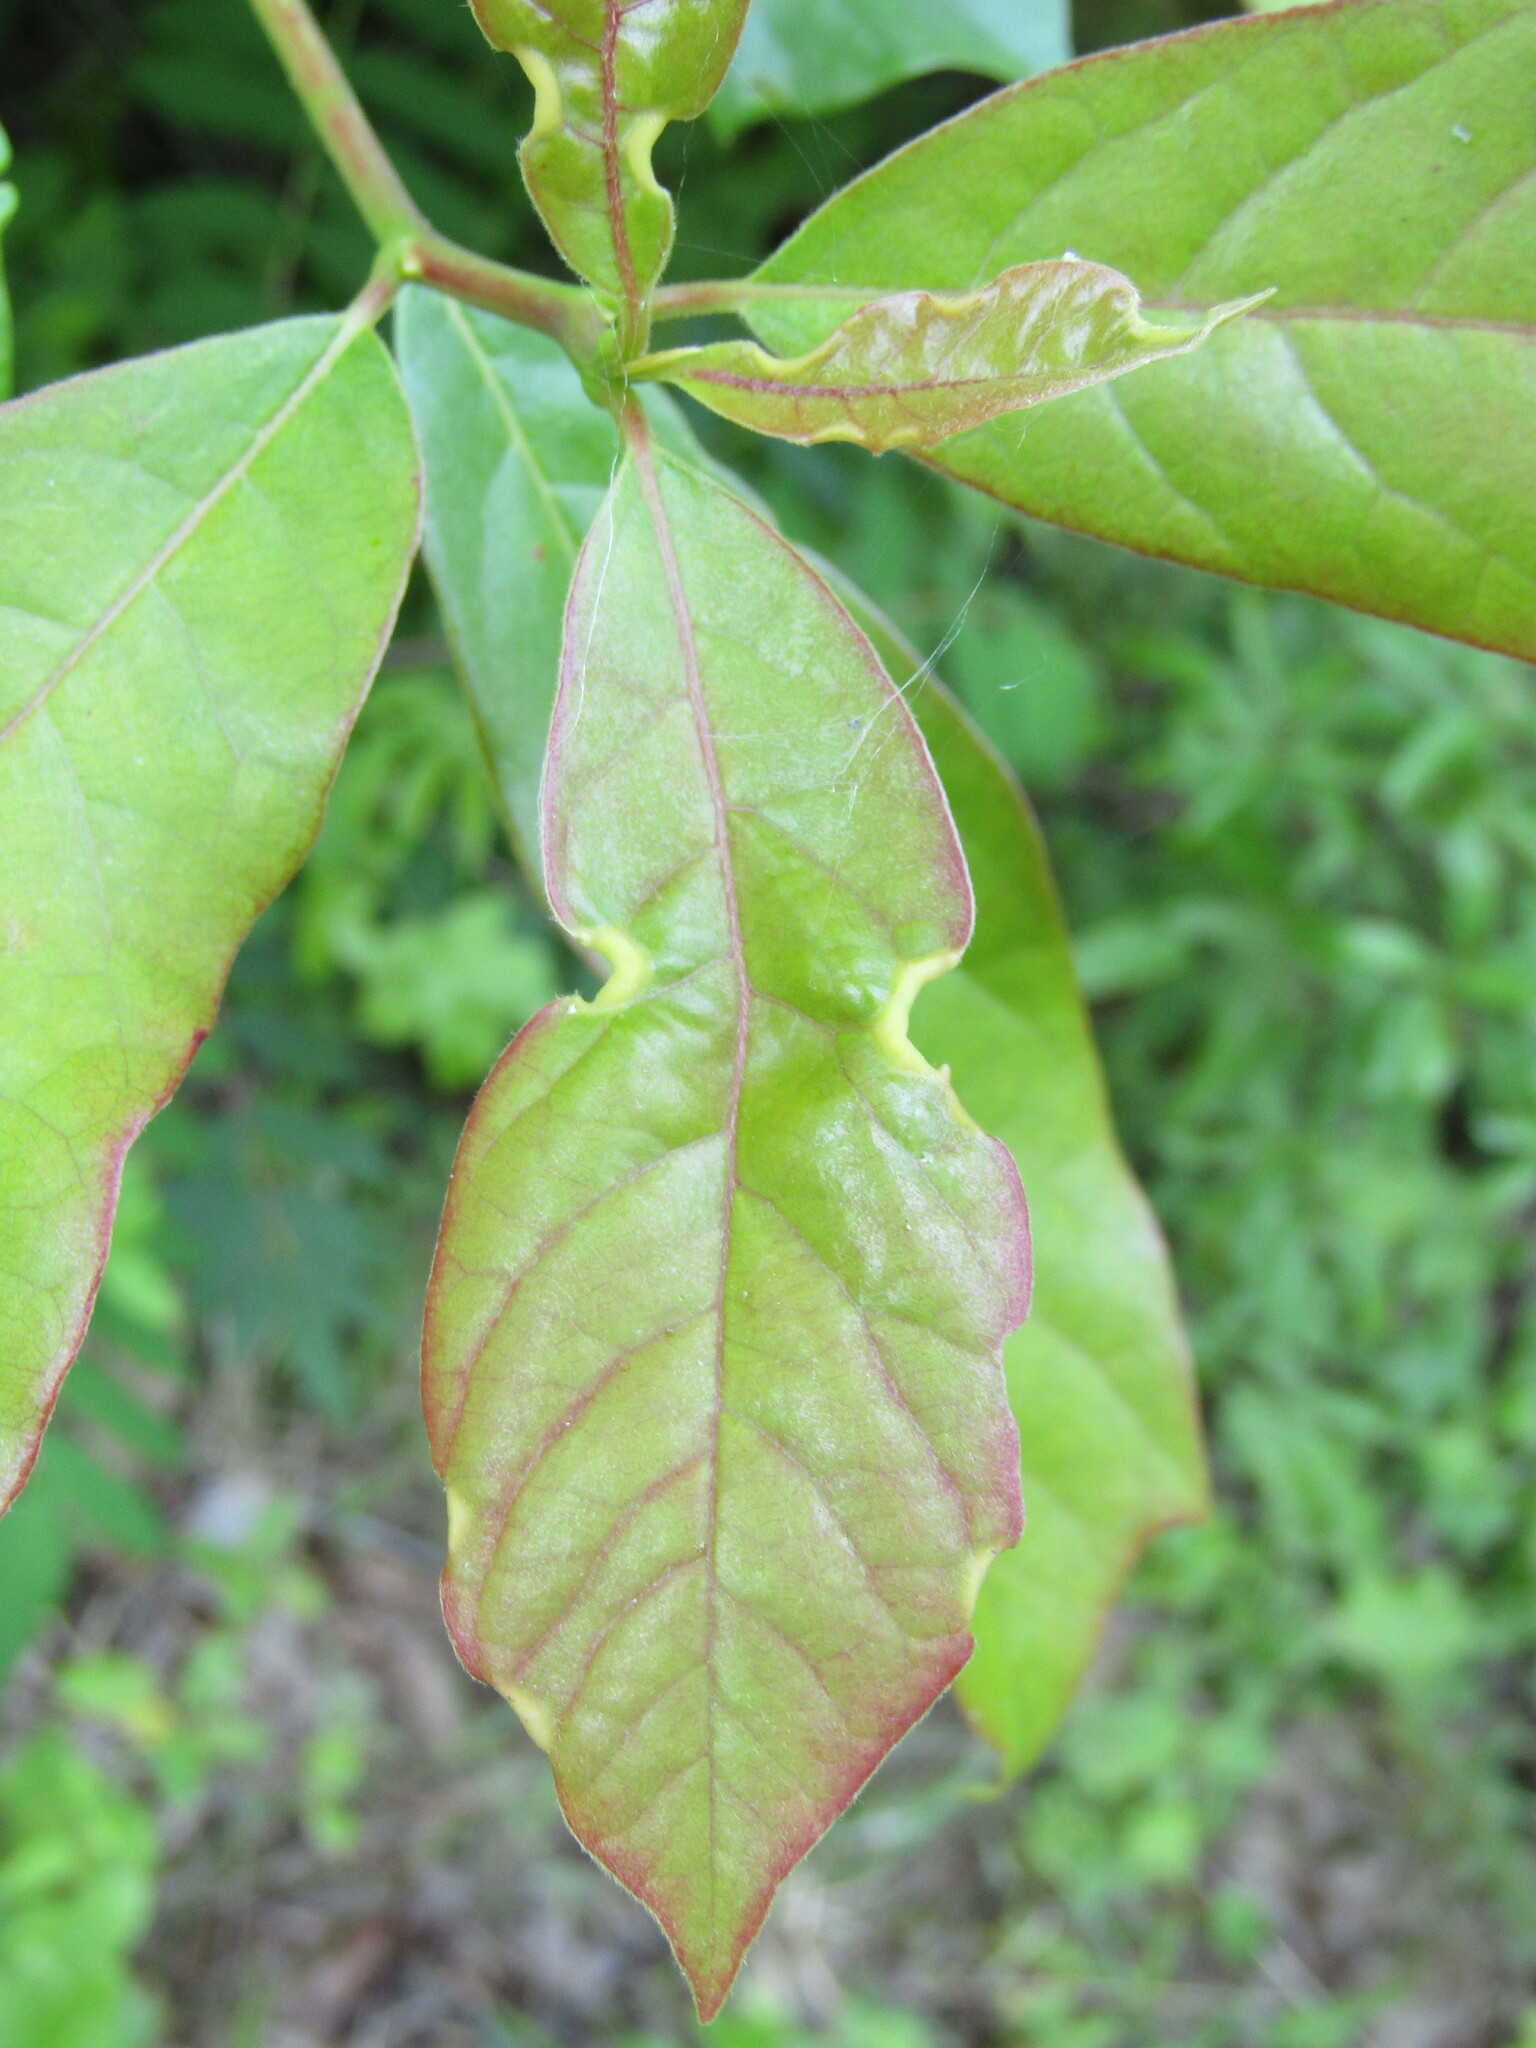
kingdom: Animalia
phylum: Arthropoda
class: Insecta
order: Hemiptera
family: Phylloxeridae
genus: Phylloxerina
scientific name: Phylloxerina nyssae
